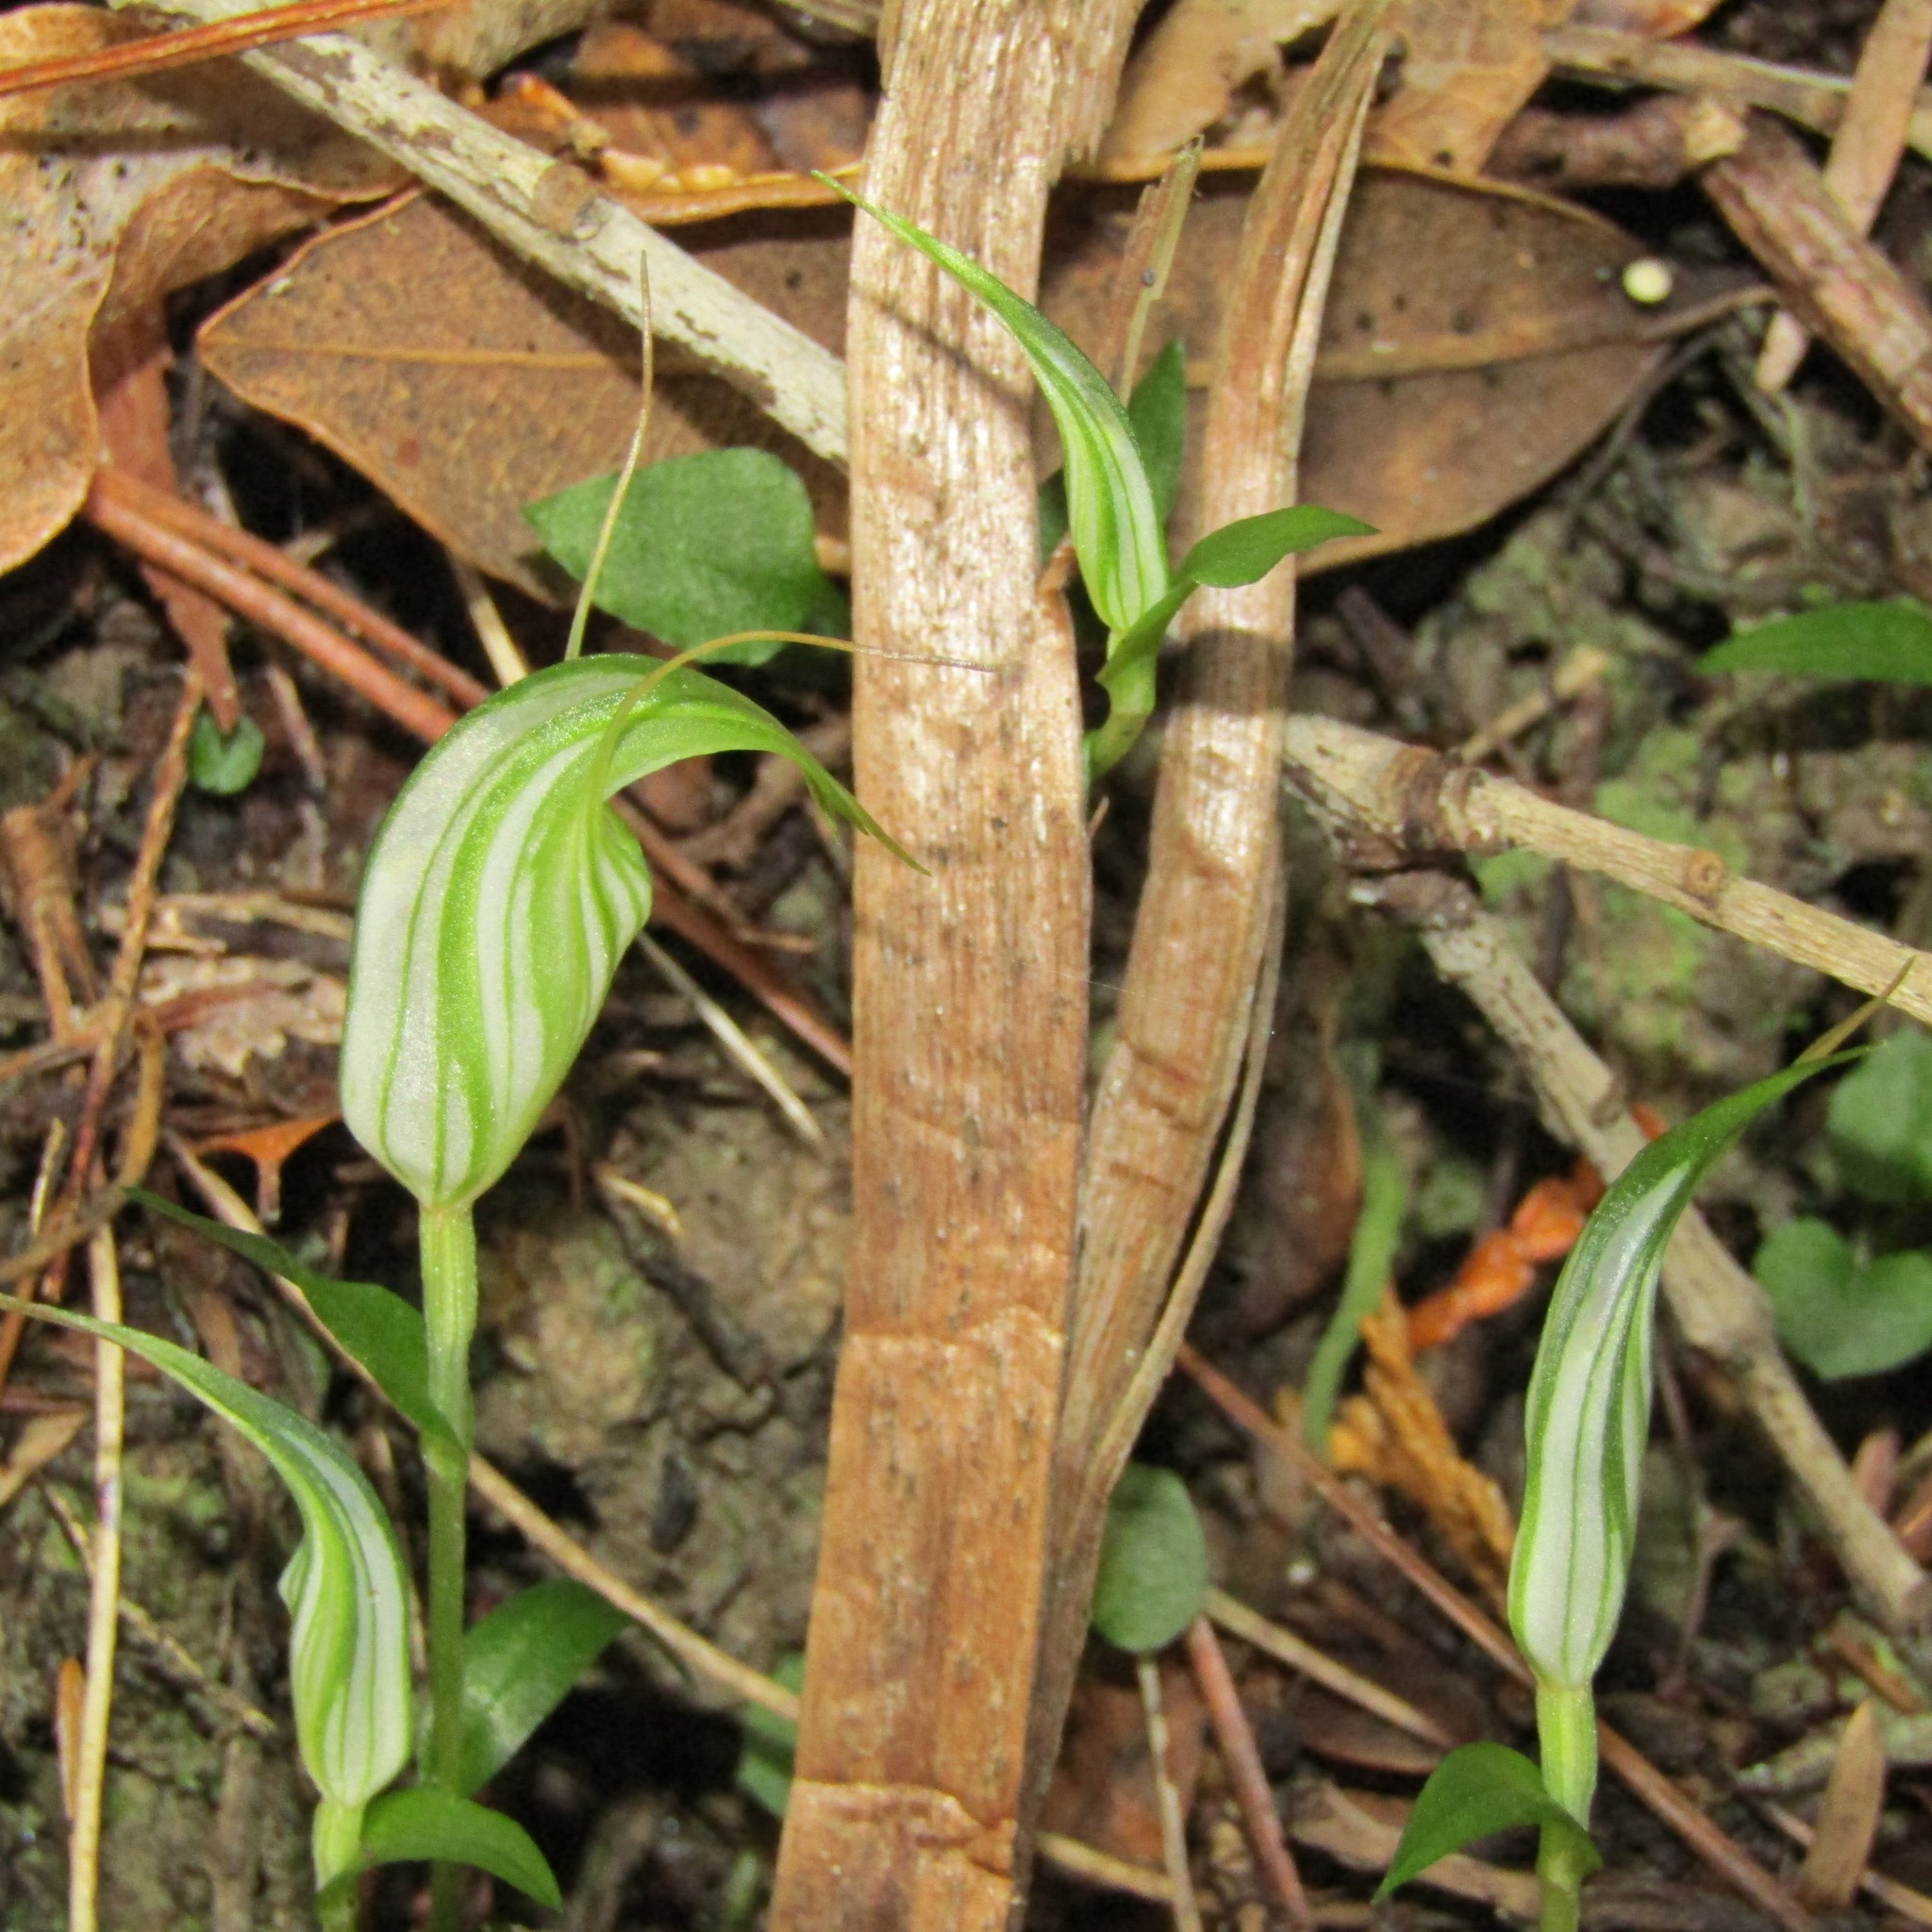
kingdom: Plantae
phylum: Tracheophyta
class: Liliopsida
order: Asparagales
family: Orchidaceae
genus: Pterostylis
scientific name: Pterostylis alobula
